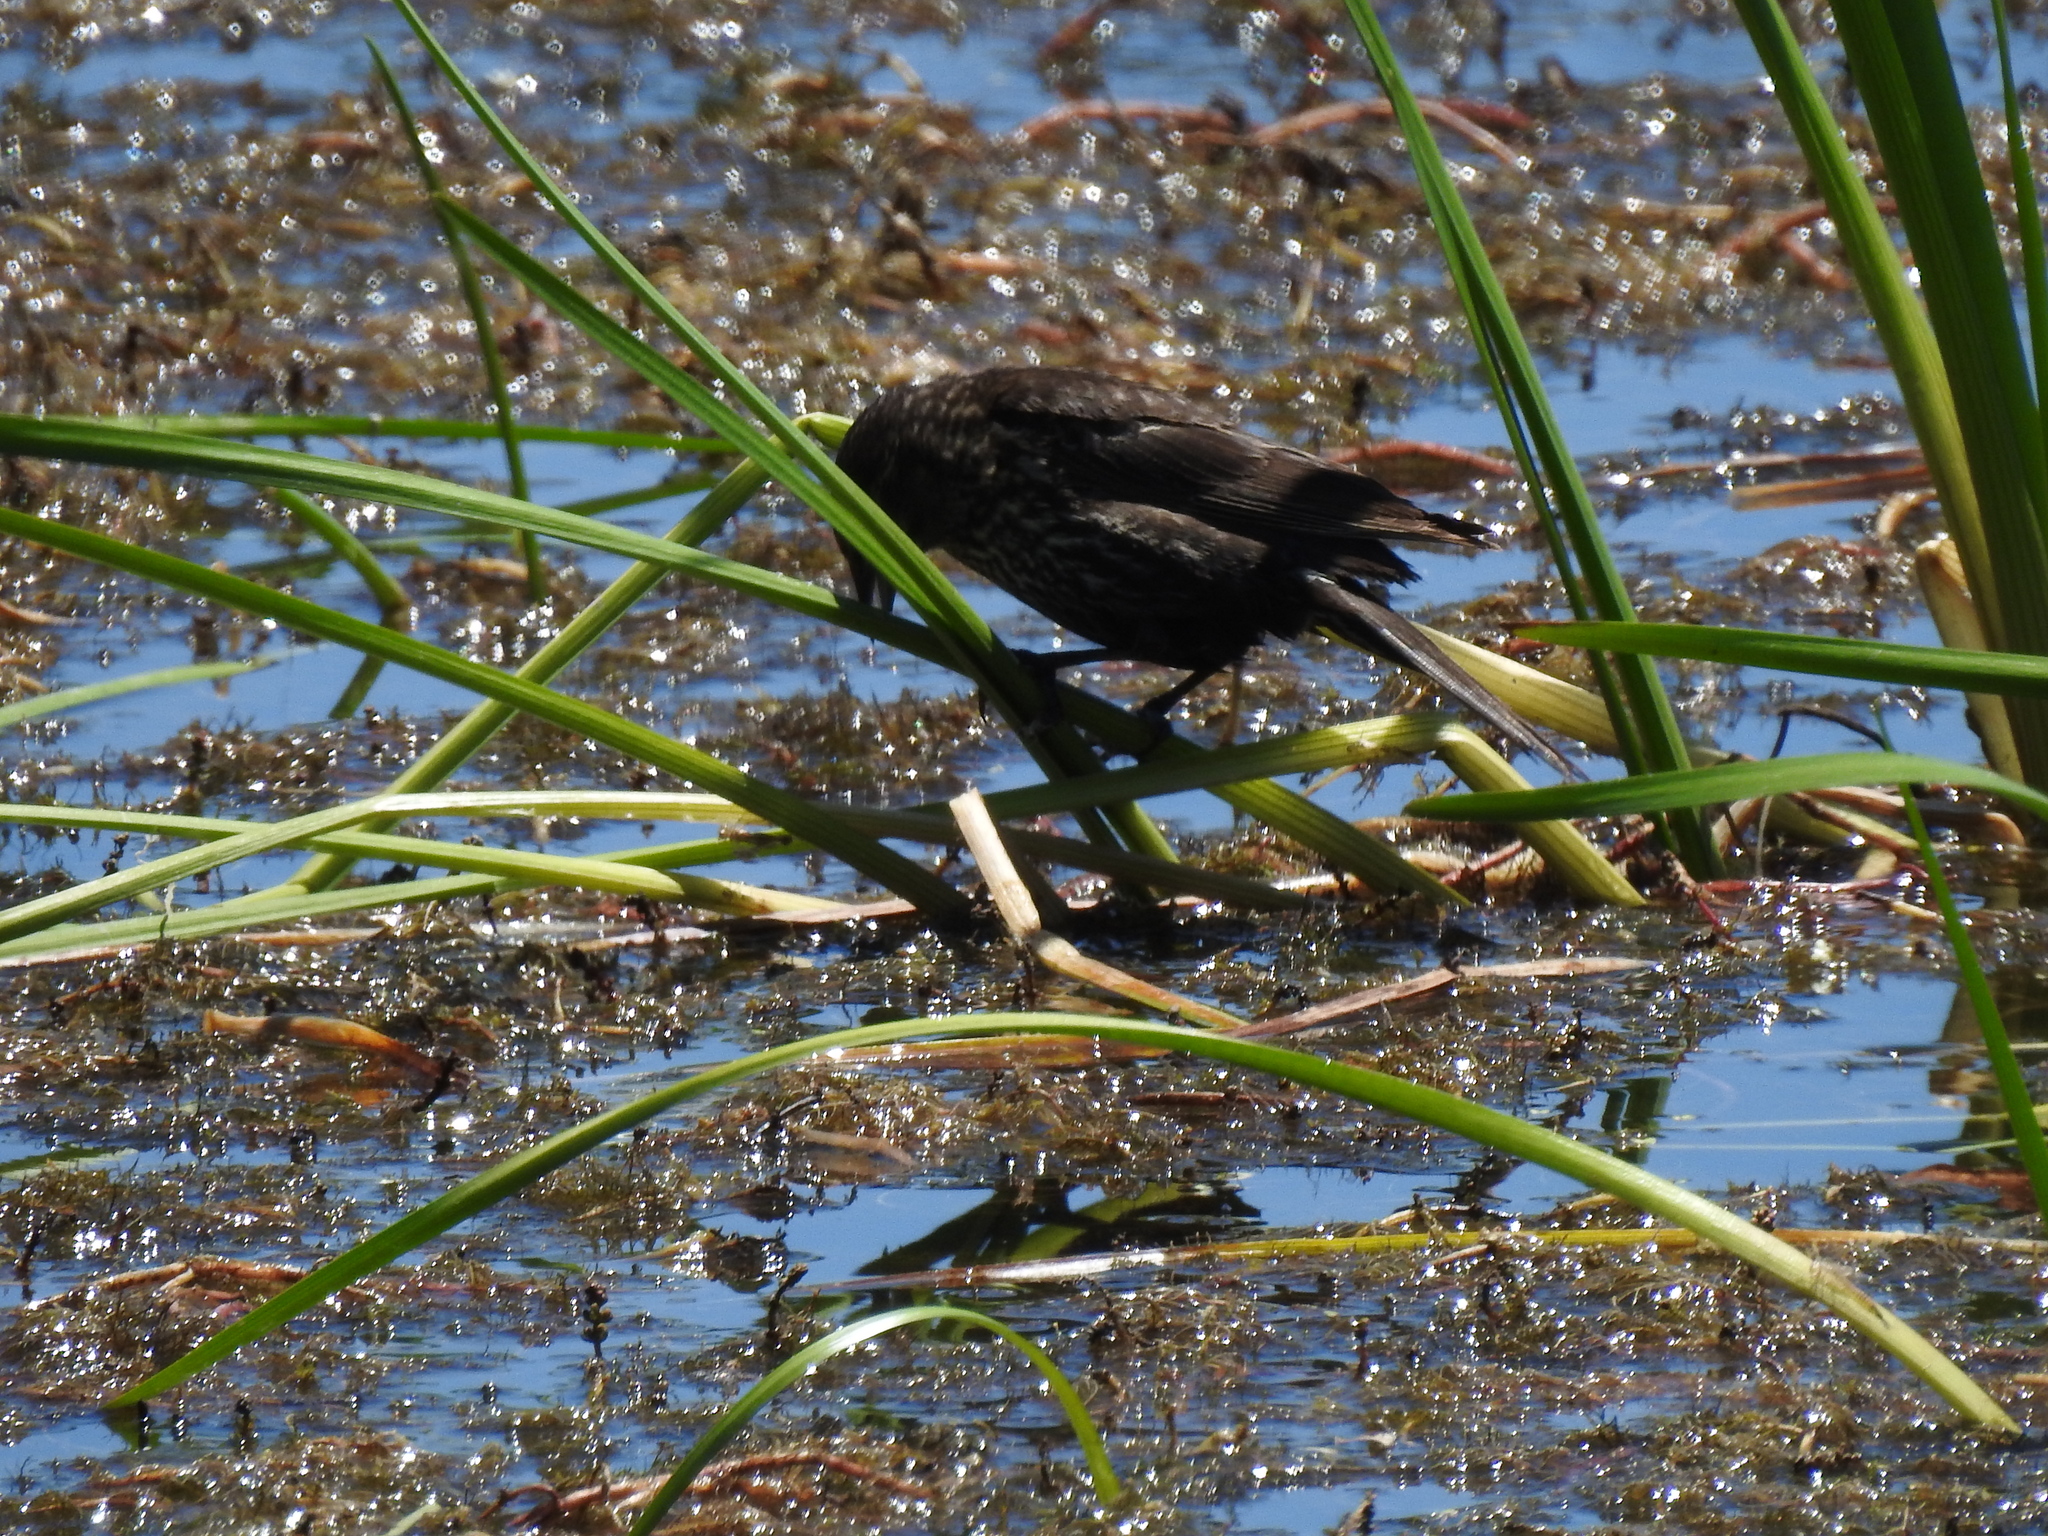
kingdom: Animalia
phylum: Chordata
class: Aves
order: Passeriformes
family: Icteridae
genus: Agelaius
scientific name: Agelaius phoeniceus
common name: Red-winged blackbird
